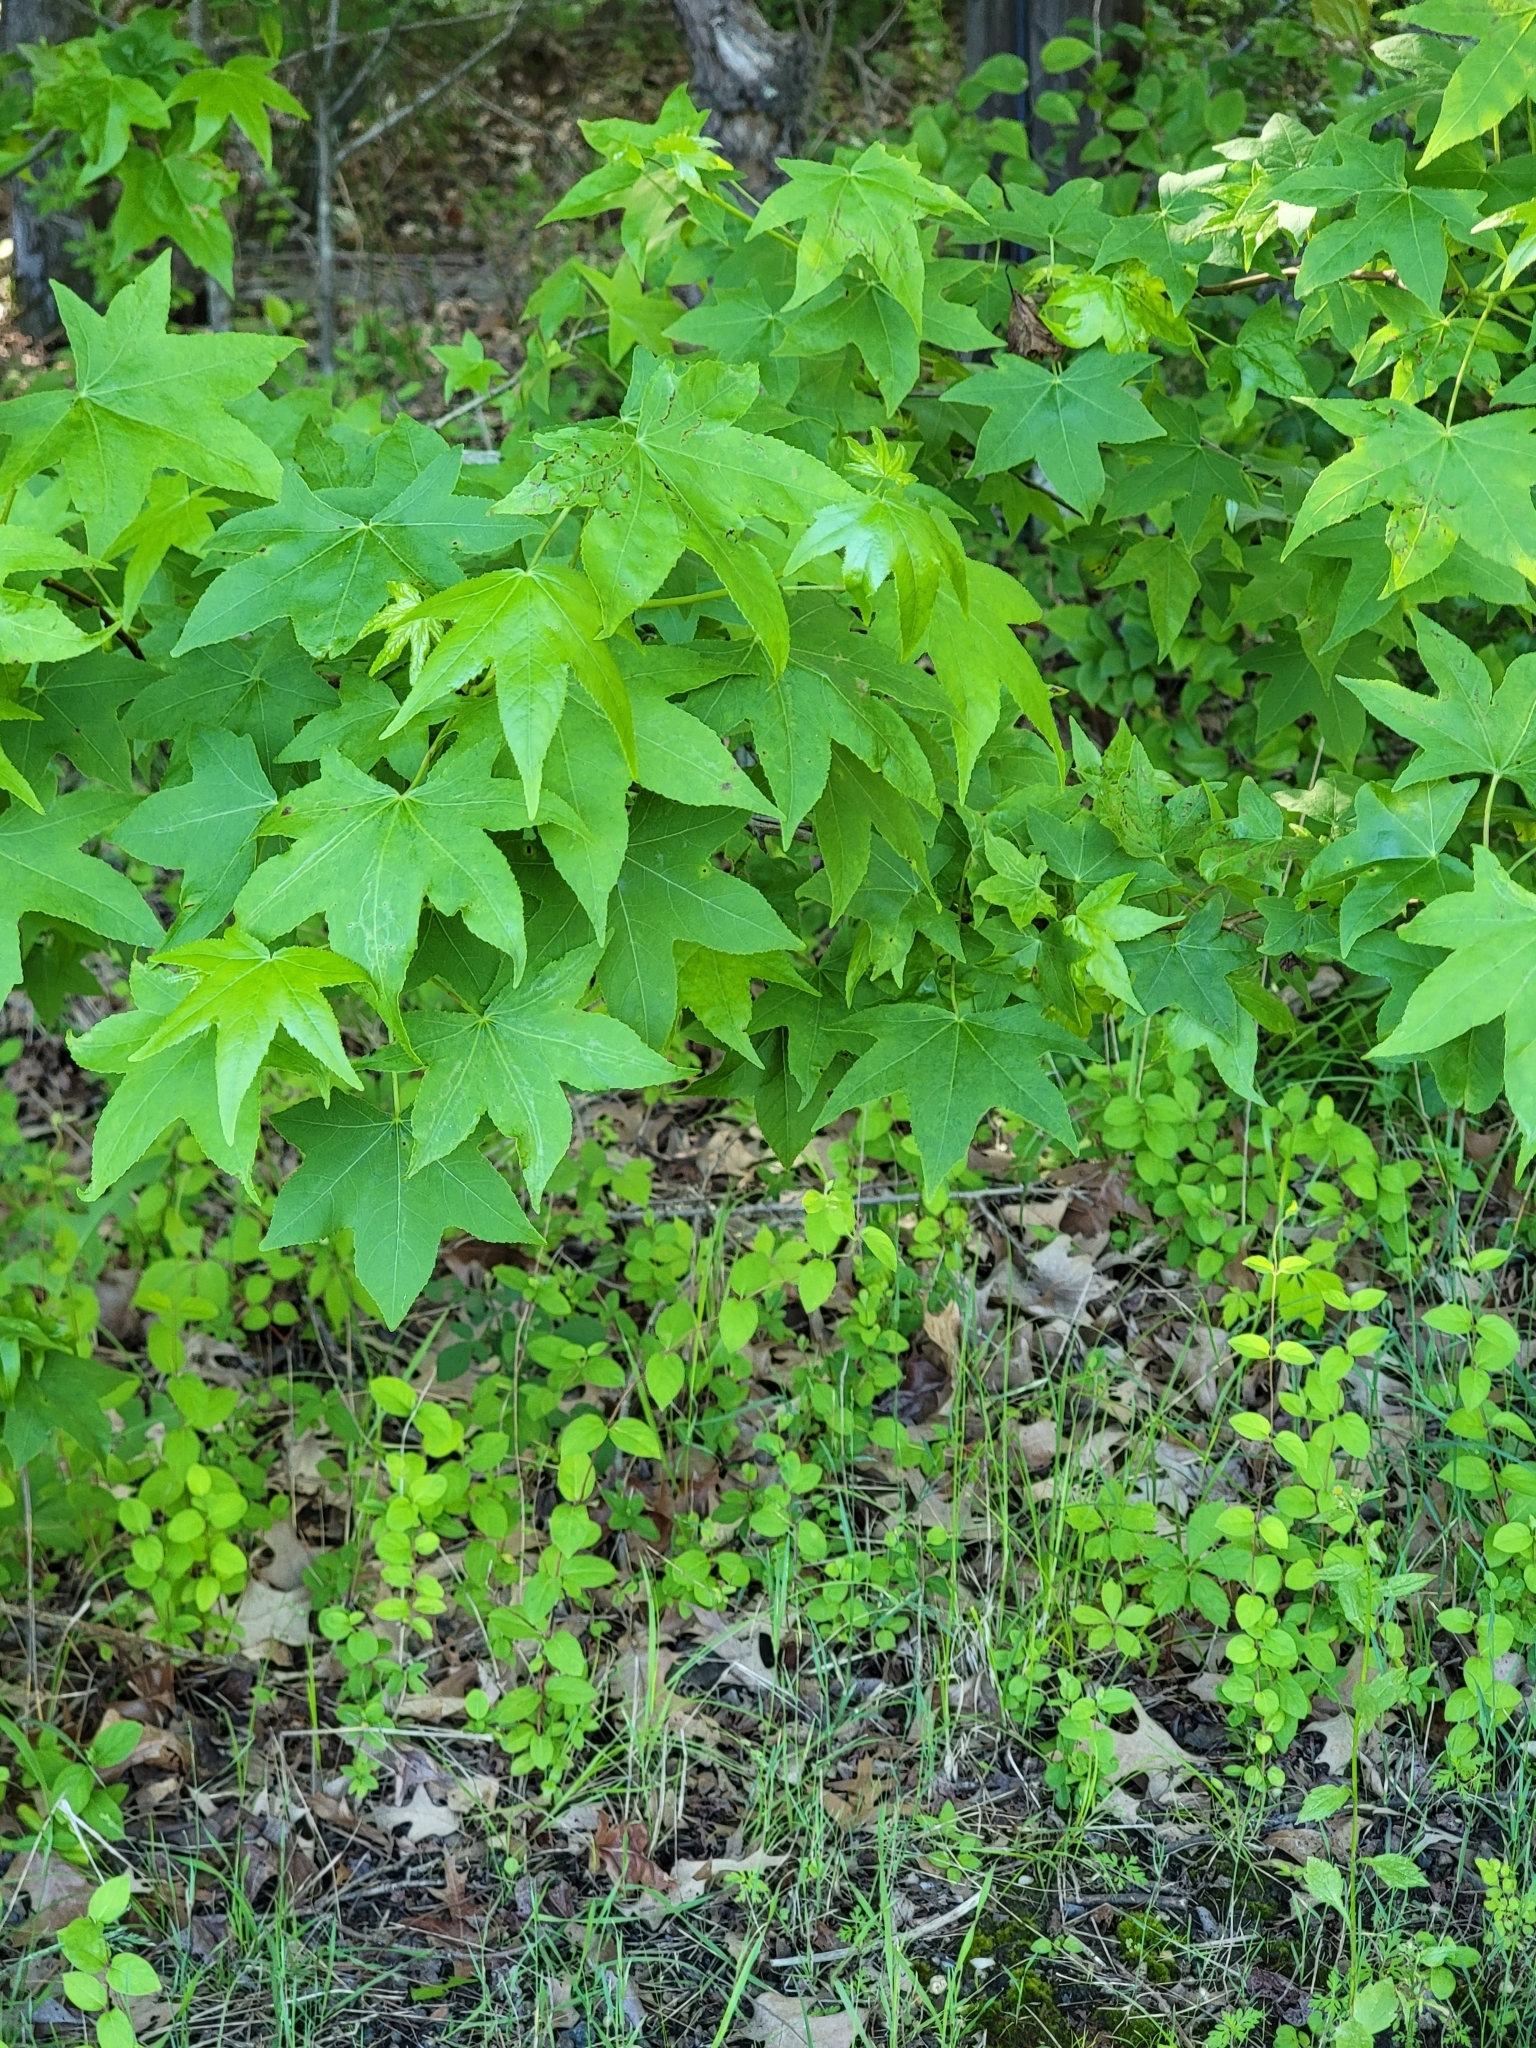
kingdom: Plantae
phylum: Tracheophyta
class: Magnoliopsida
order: Saxifragales
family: Altingiaceae
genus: Liquidambar
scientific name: Liquidambar styraciflua
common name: Sweet gum
